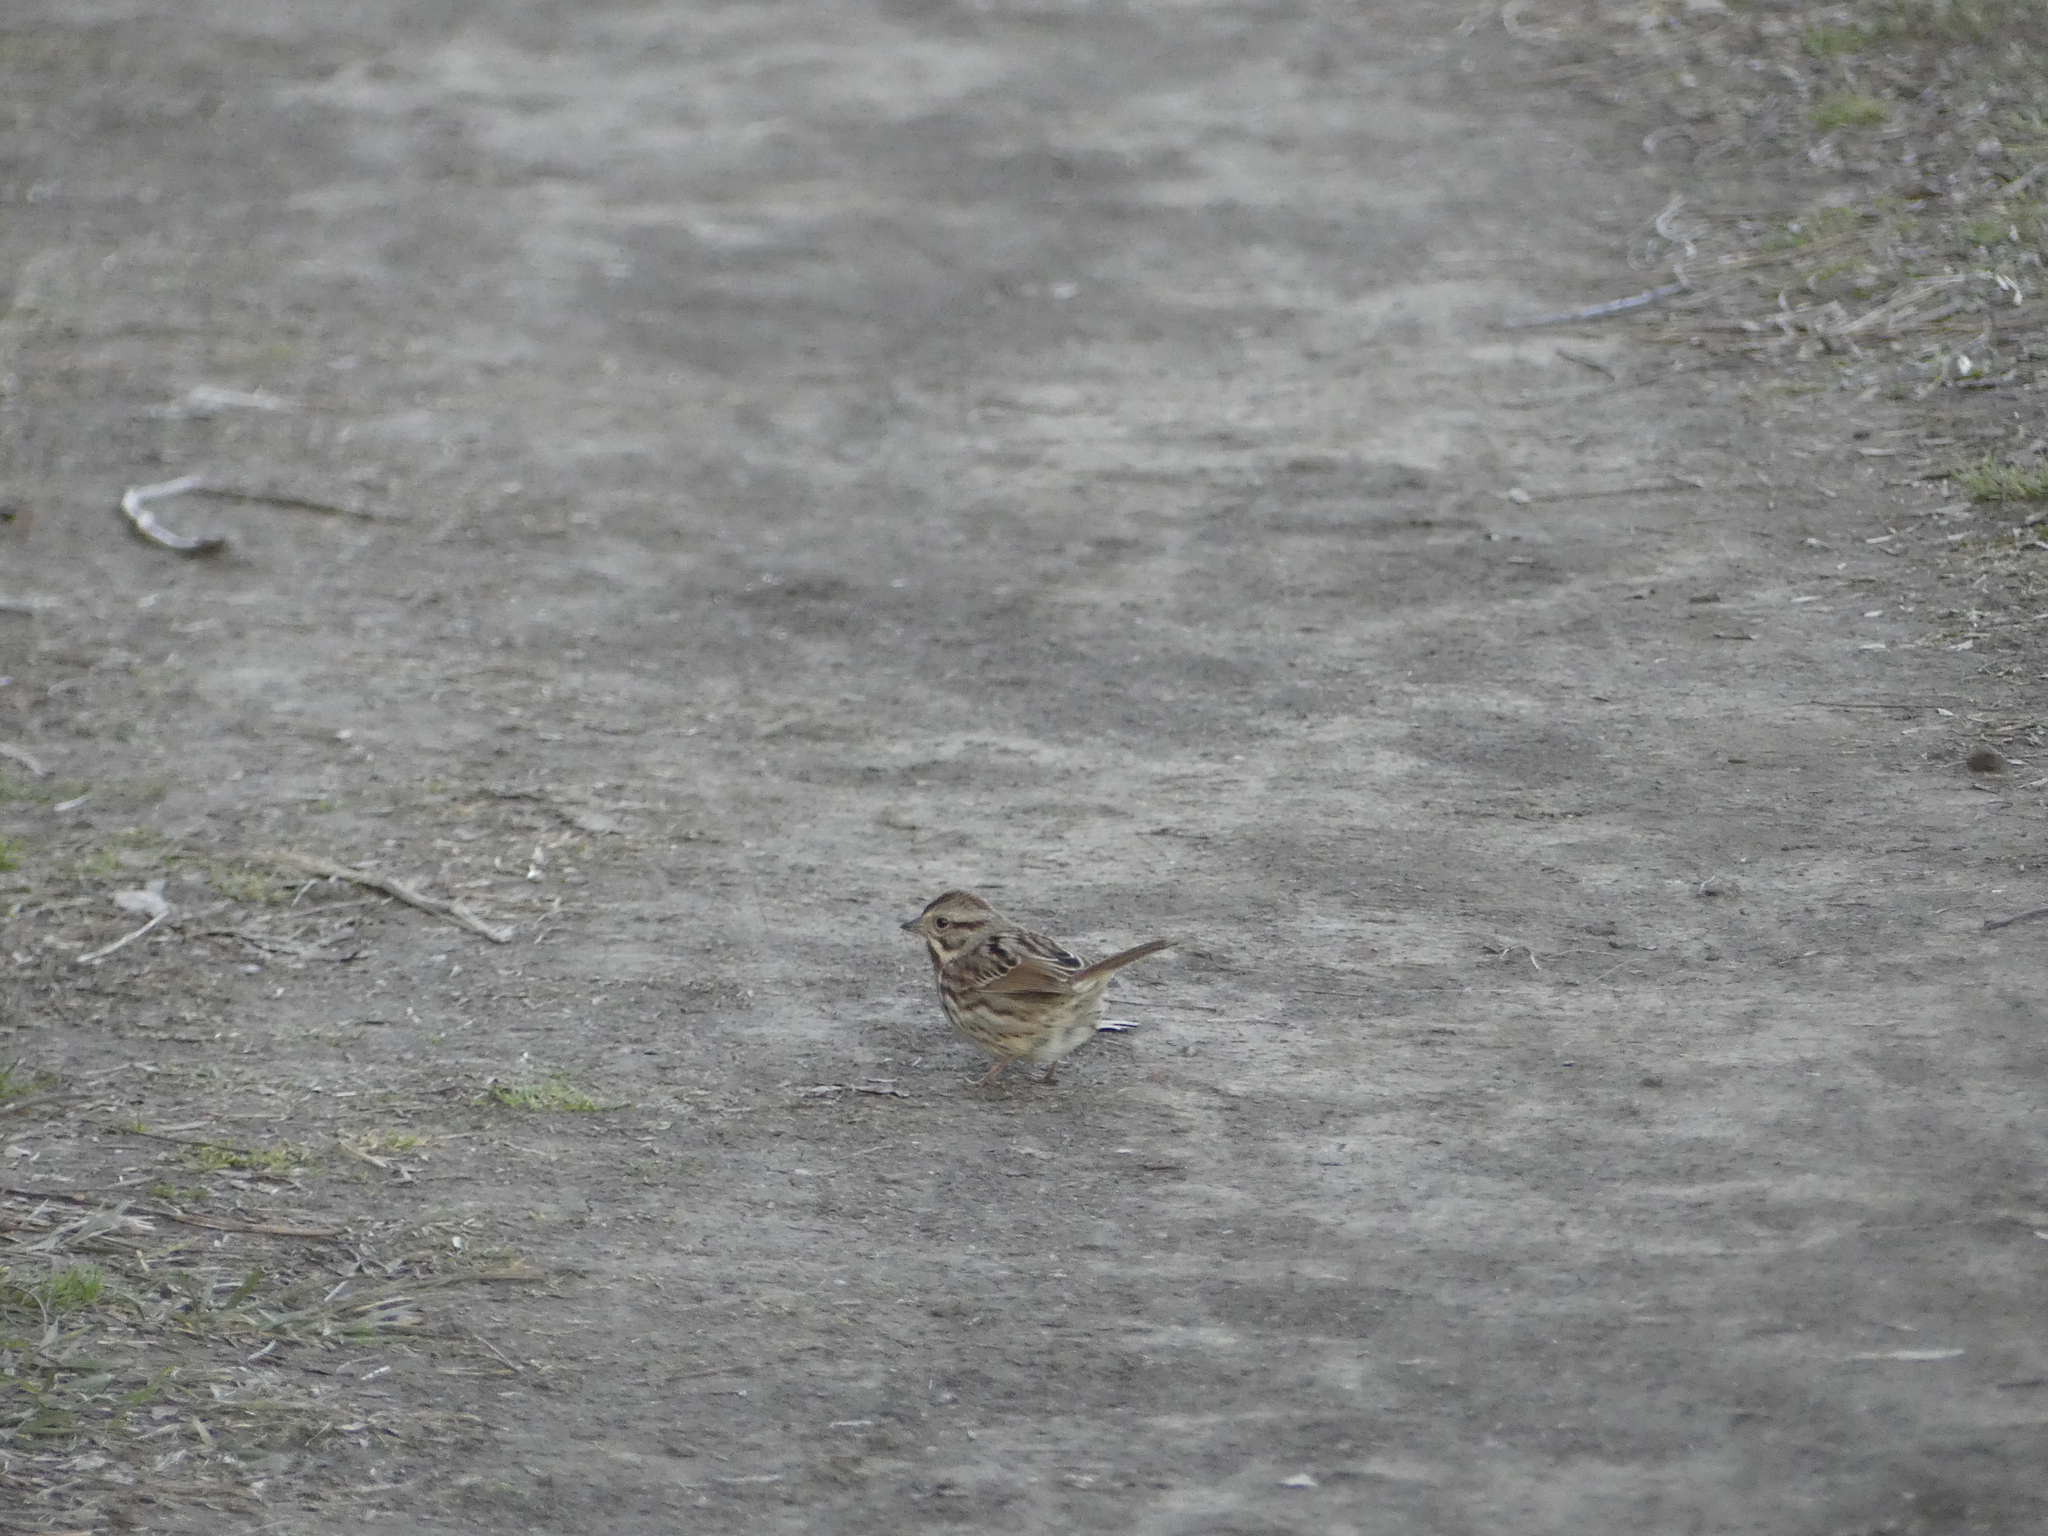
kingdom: Animalia
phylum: Chordata
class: Aves
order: Passeriformes
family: Passerellidae
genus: Melospiza
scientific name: Melospiza melodia
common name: Song sparrow
